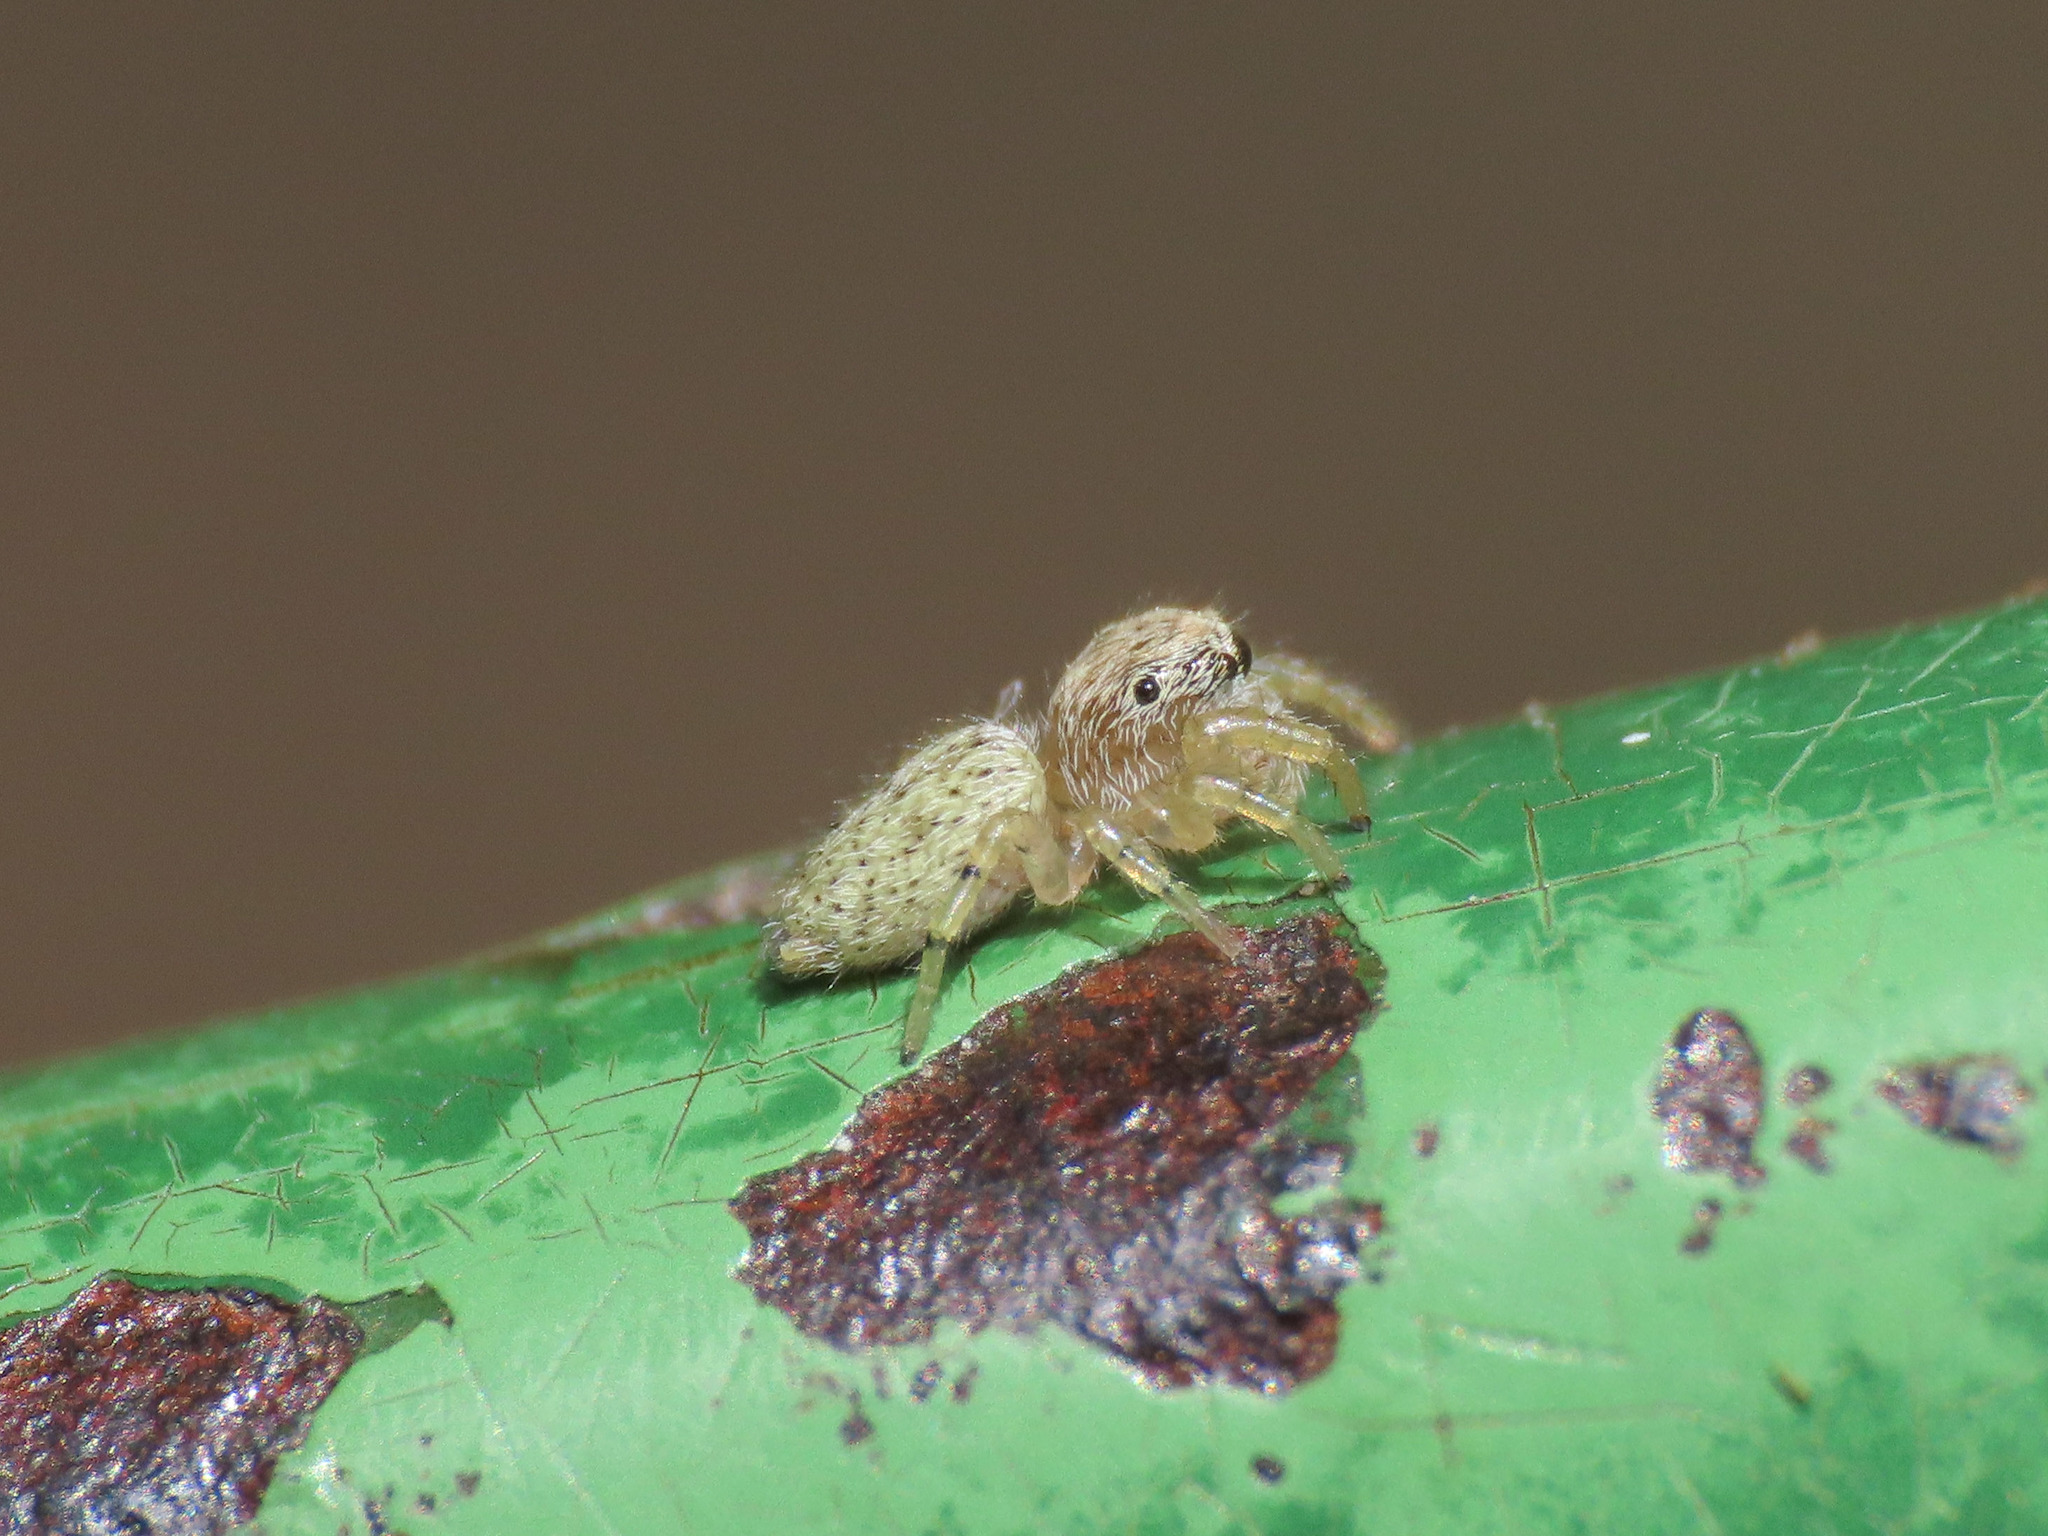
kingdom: Animalia
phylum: Arthropoda
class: Arachnida
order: Araneae
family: Salticidae
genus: Macaroeris
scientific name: Macaroeris nidicolens
